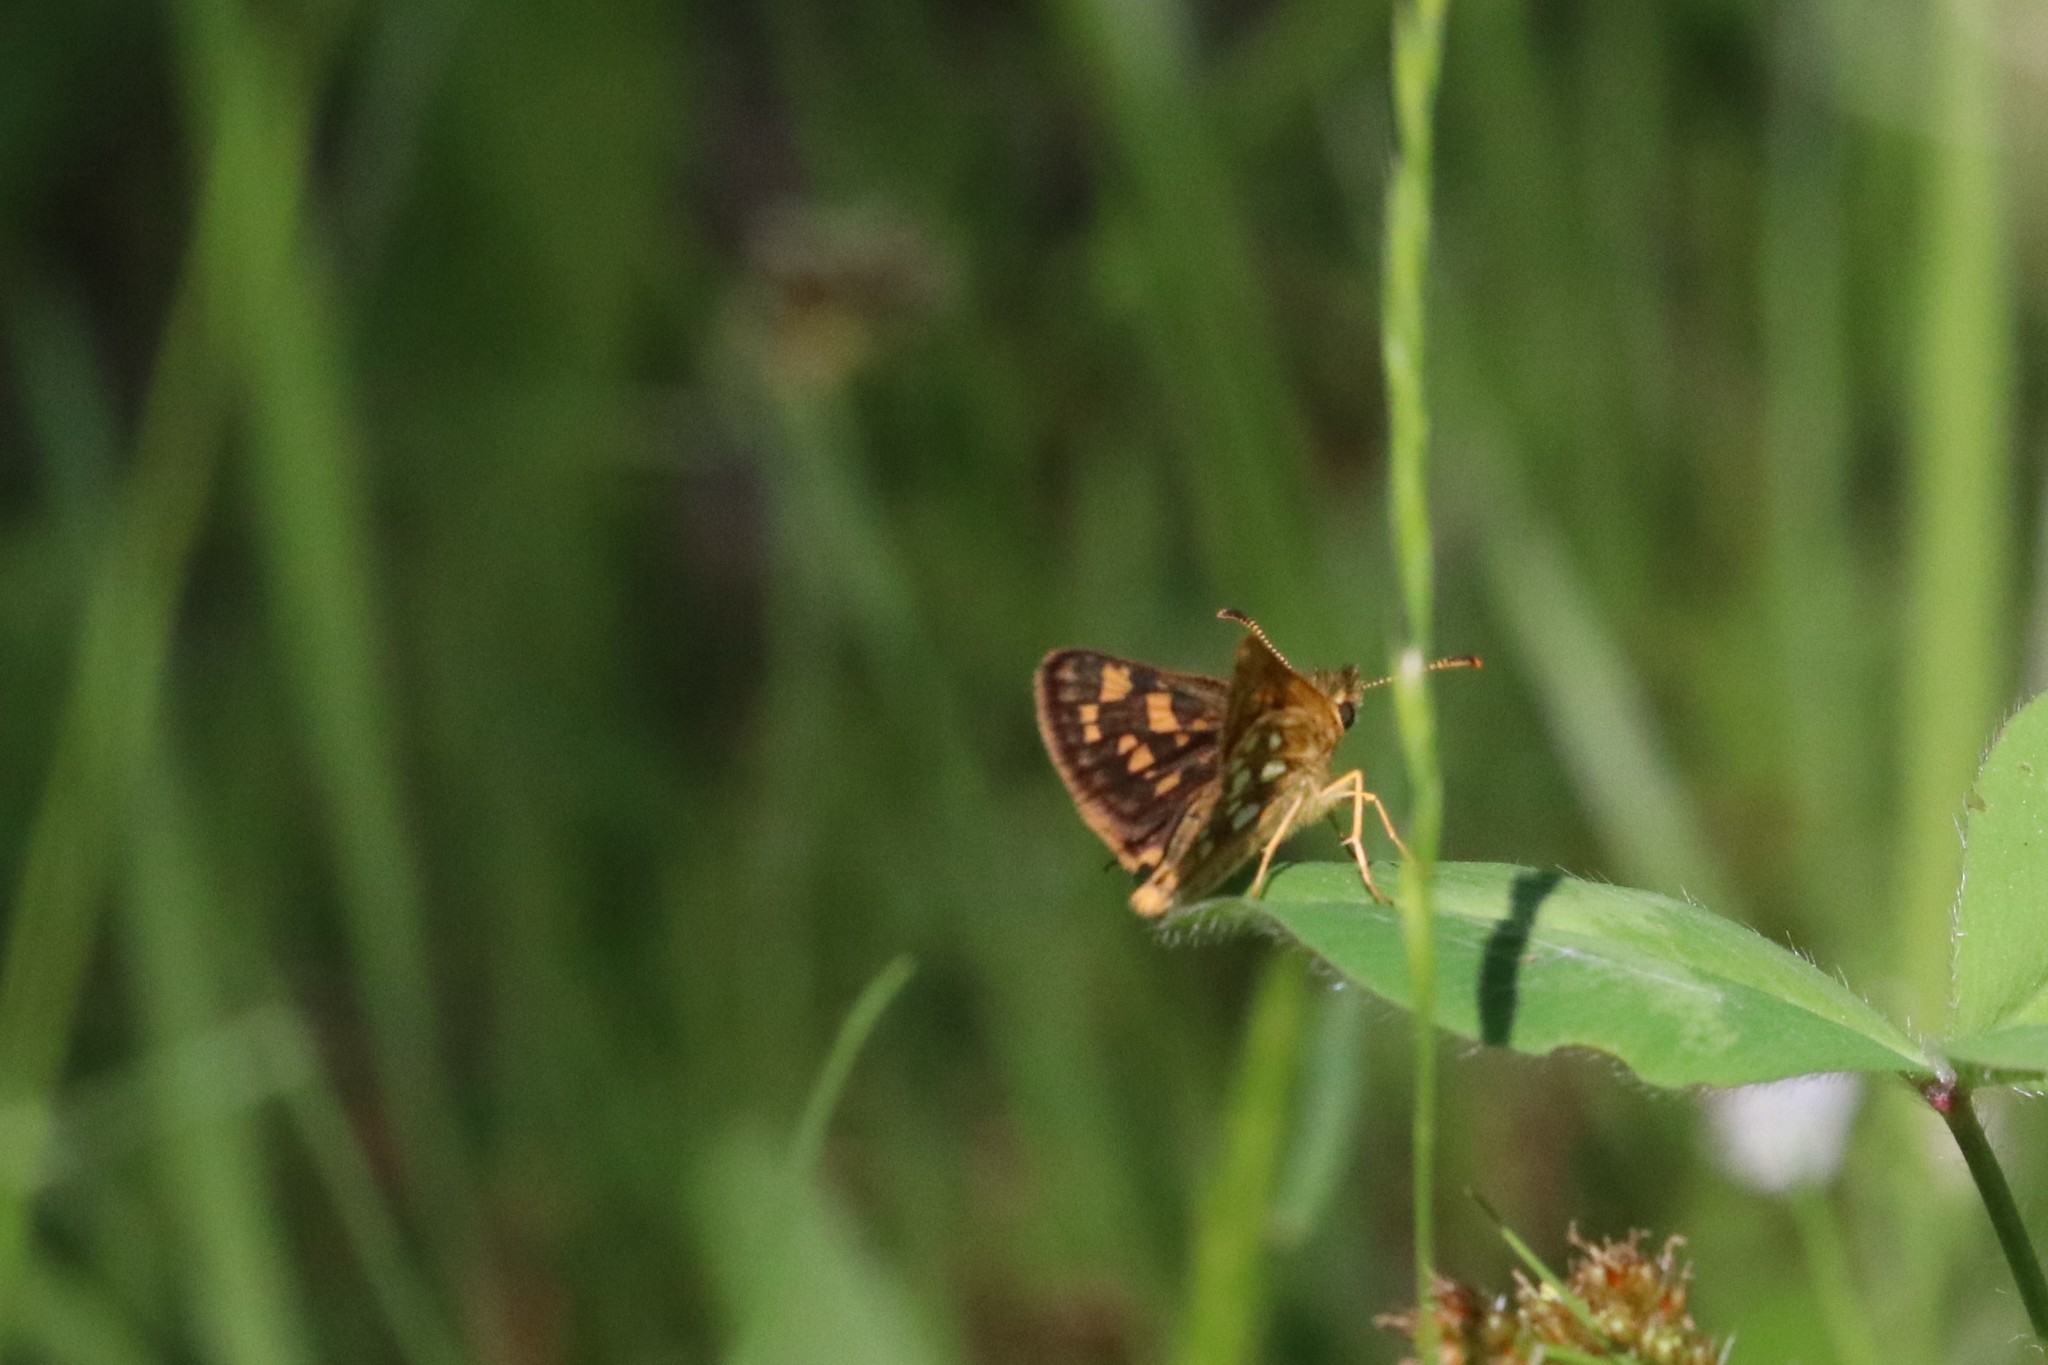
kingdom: Animalia
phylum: Arthropoda
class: Insecta
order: Lepidoptera
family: Hesperiidae
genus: Carterocephalus
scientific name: Carterocephalus mandan
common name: Arctic skipperling
